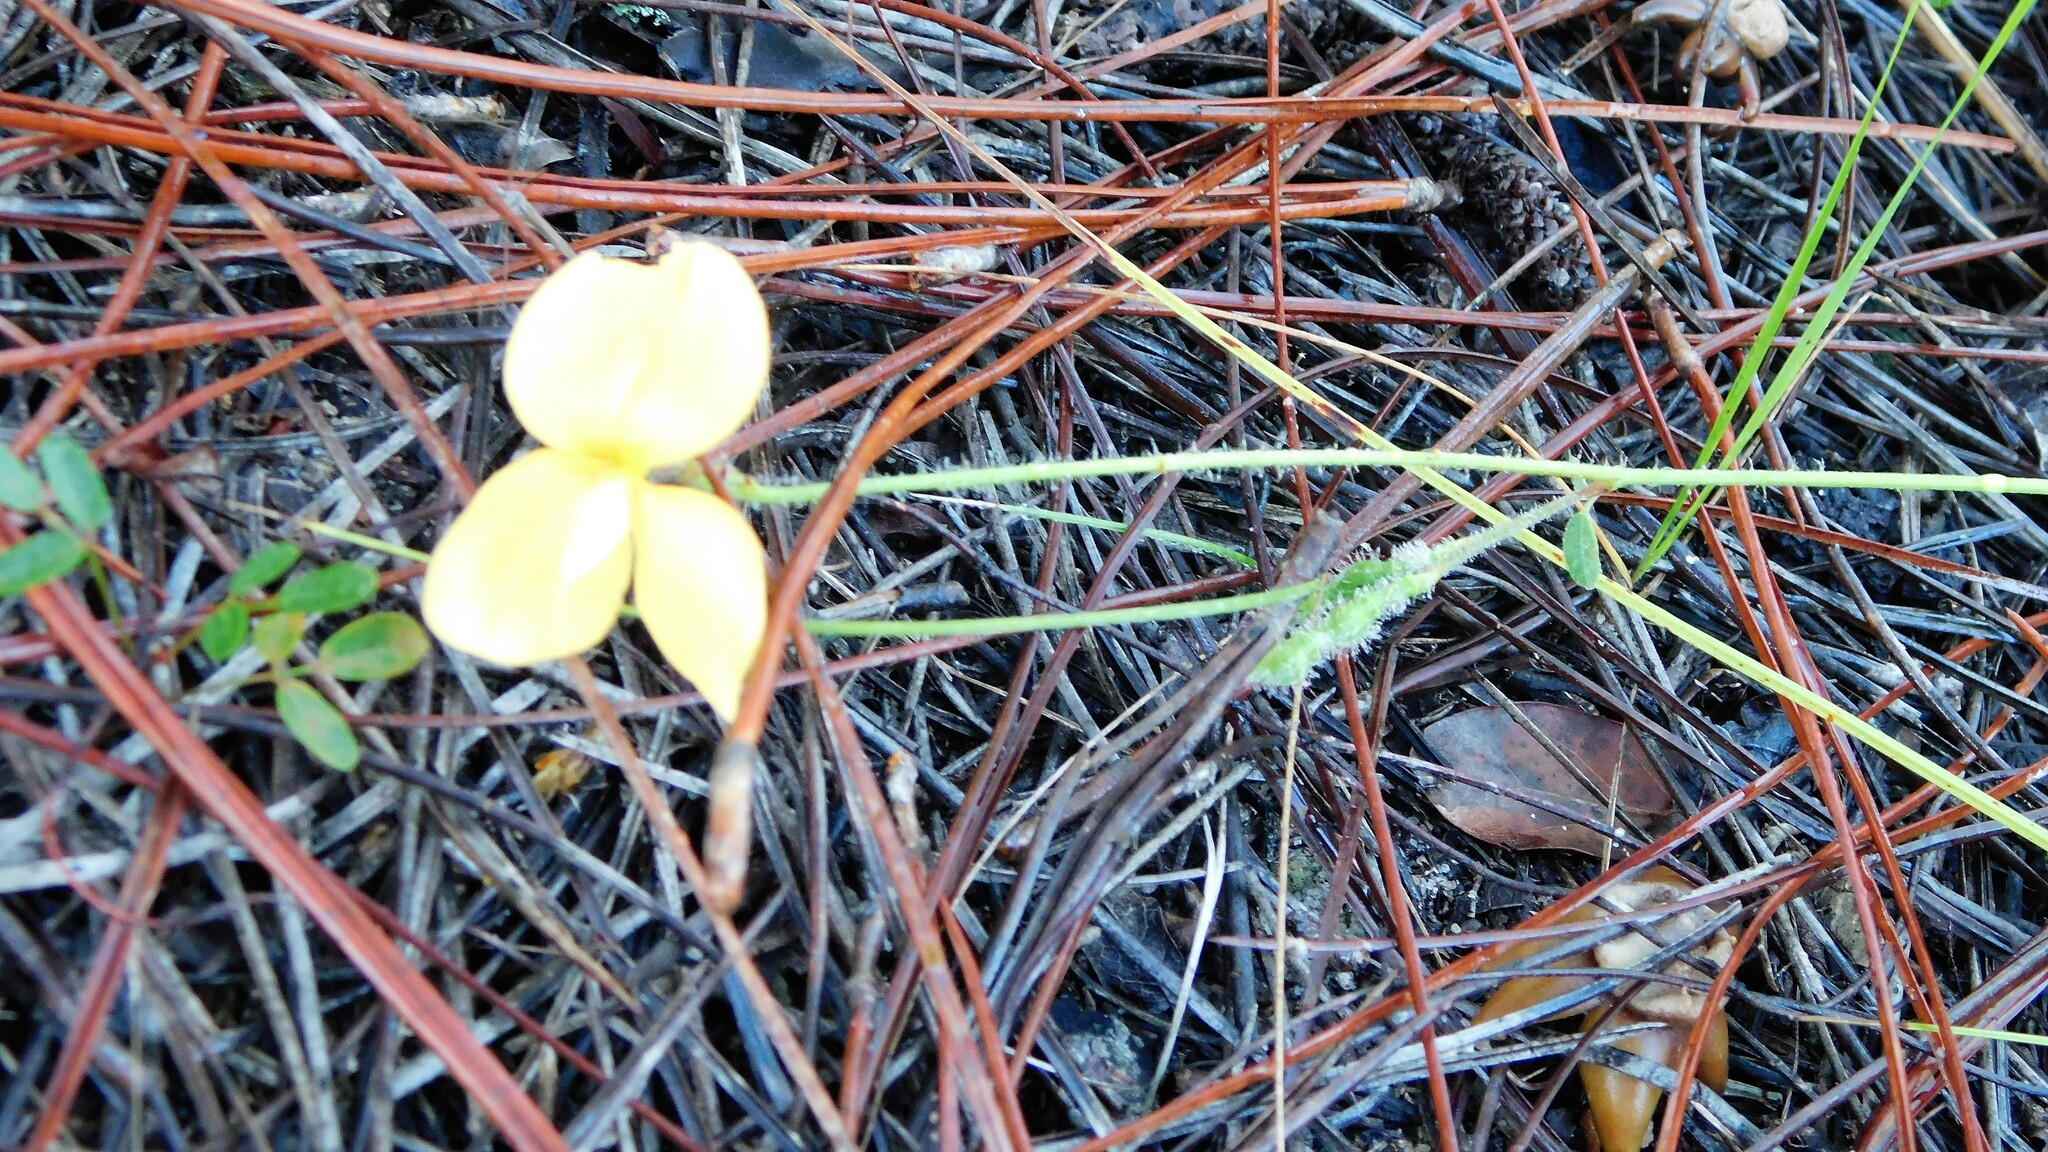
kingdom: Plantae
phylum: Tracheophyta
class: Magnoliopsida
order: Fabales
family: Fabaceae
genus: Chapmannia
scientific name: Chapmannia floridana
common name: Alicia
